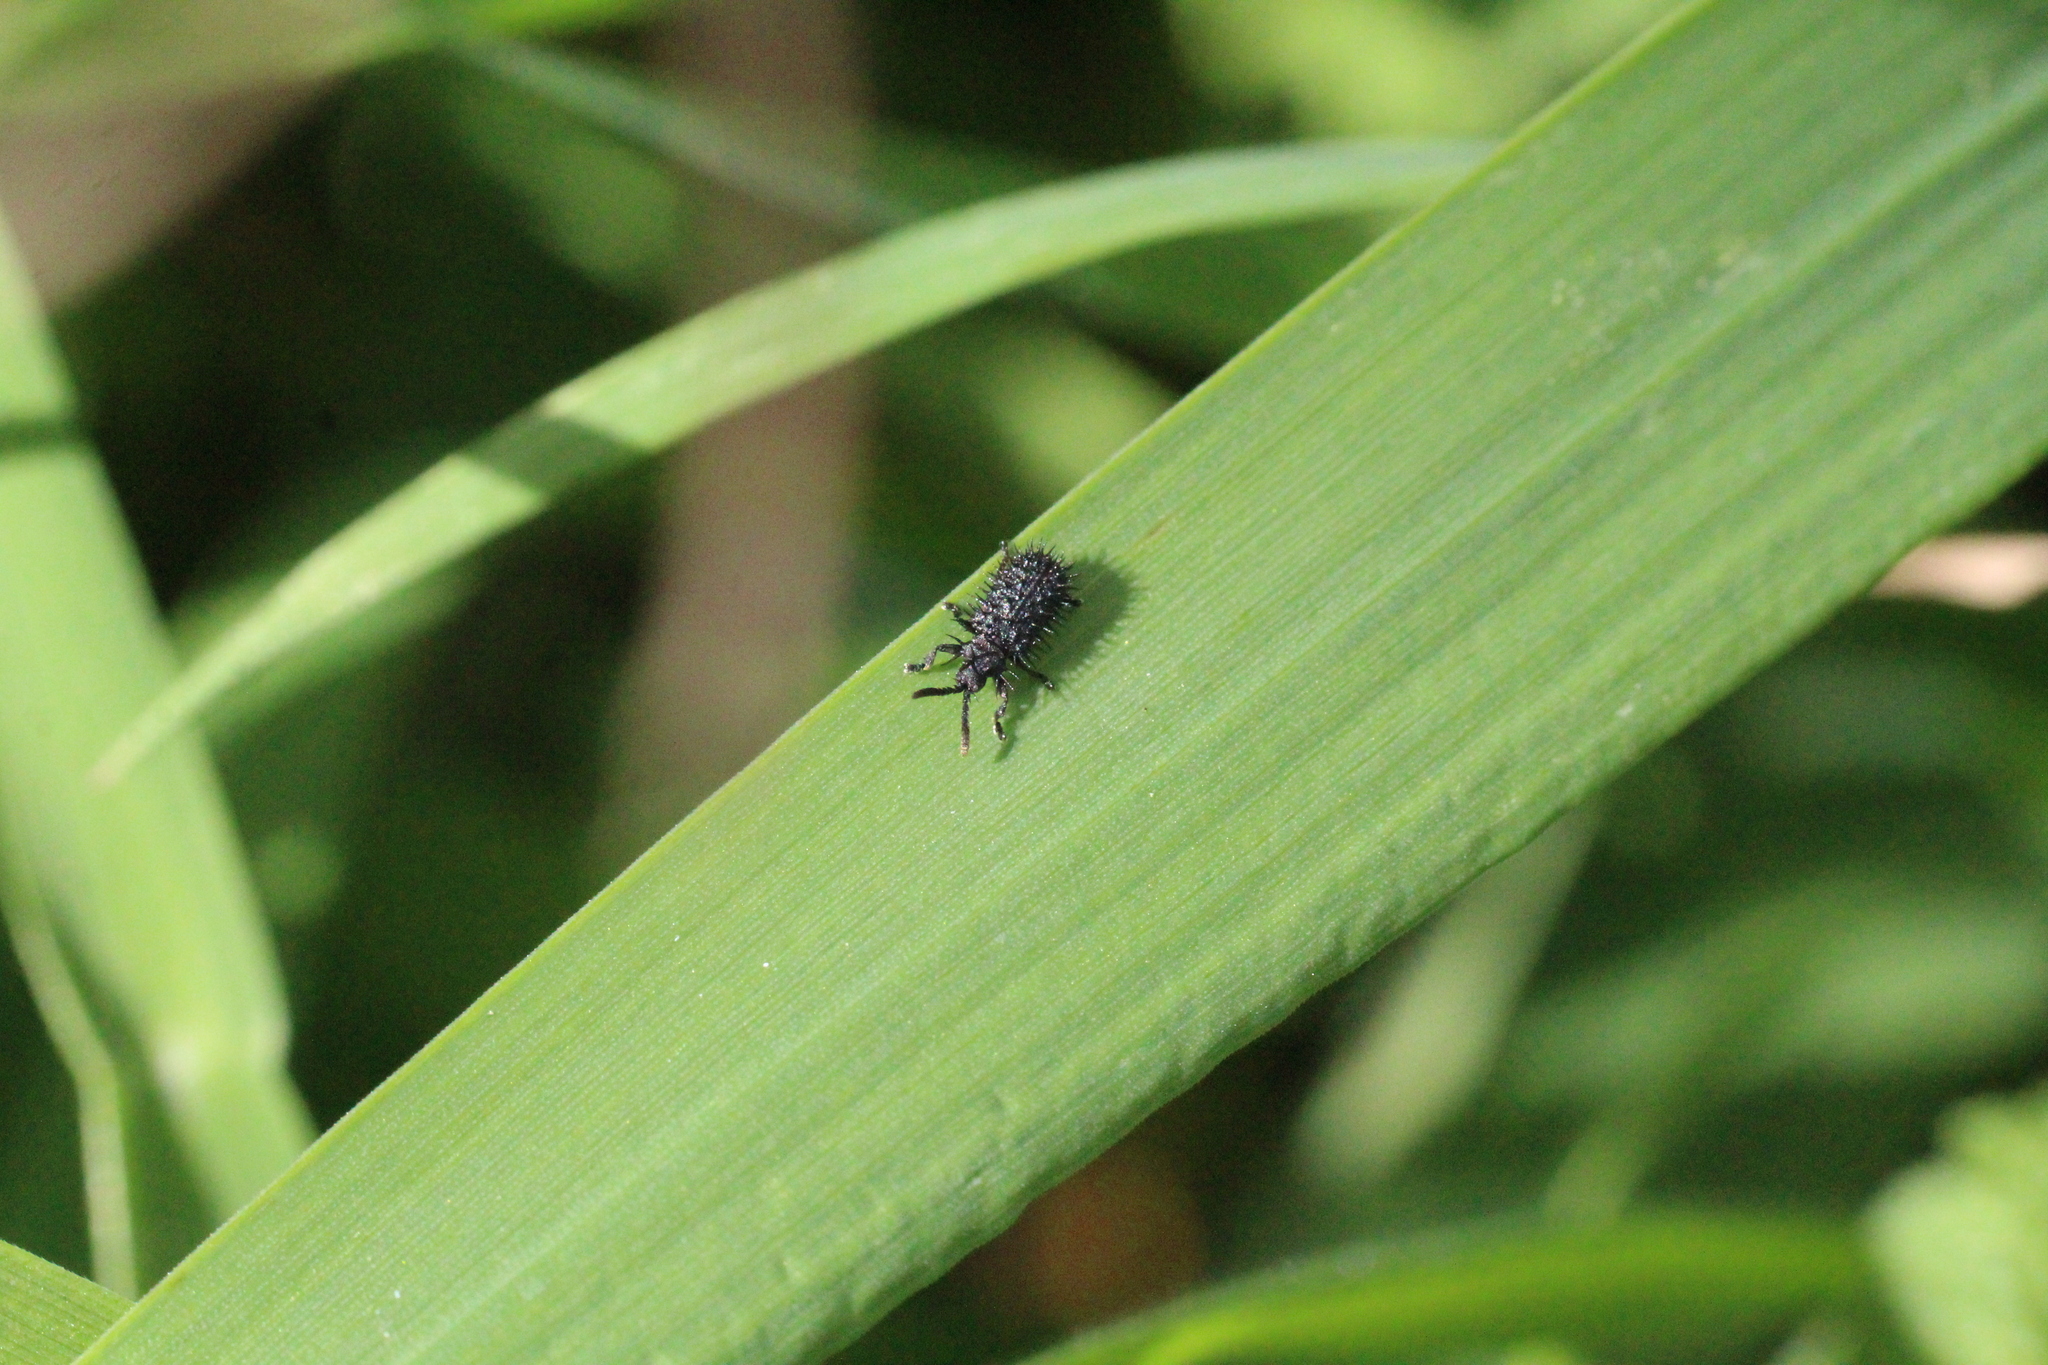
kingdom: Animalia
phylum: Arthropoda
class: Insecta
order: Coleoptera
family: Chrysomelidae
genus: Hispa
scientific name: Hispa atra
